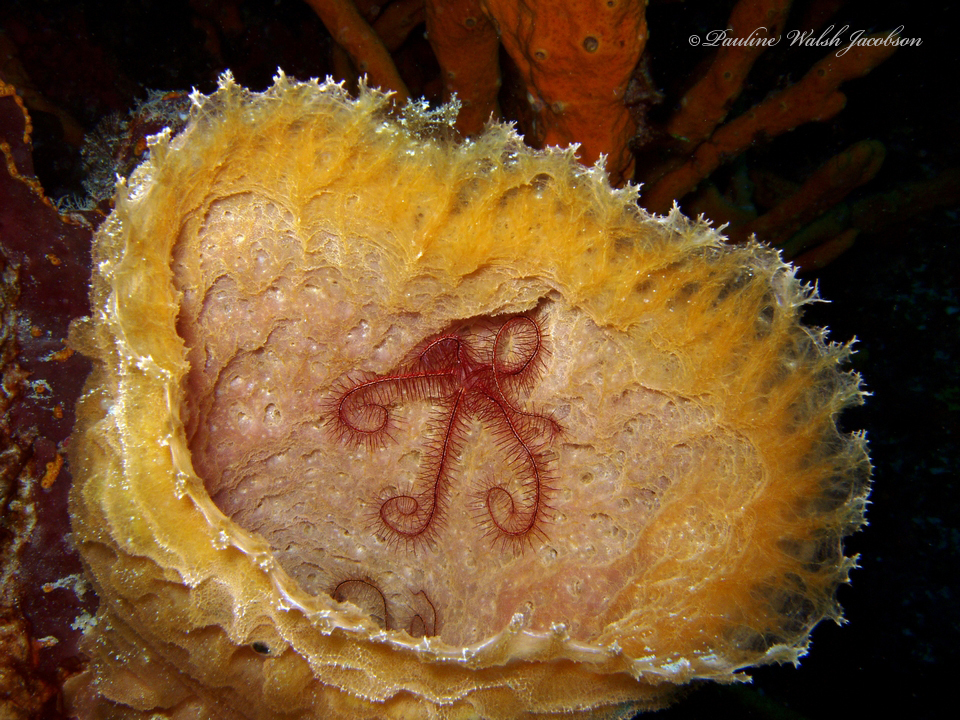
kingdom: Animalia
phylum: Echinodermata
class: Ophiuroidea
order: Amphilepidida
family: Ophiotrichidae
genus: Ophiothrix
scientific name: Ophiothrix suensonii
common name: Sponge brittle star
